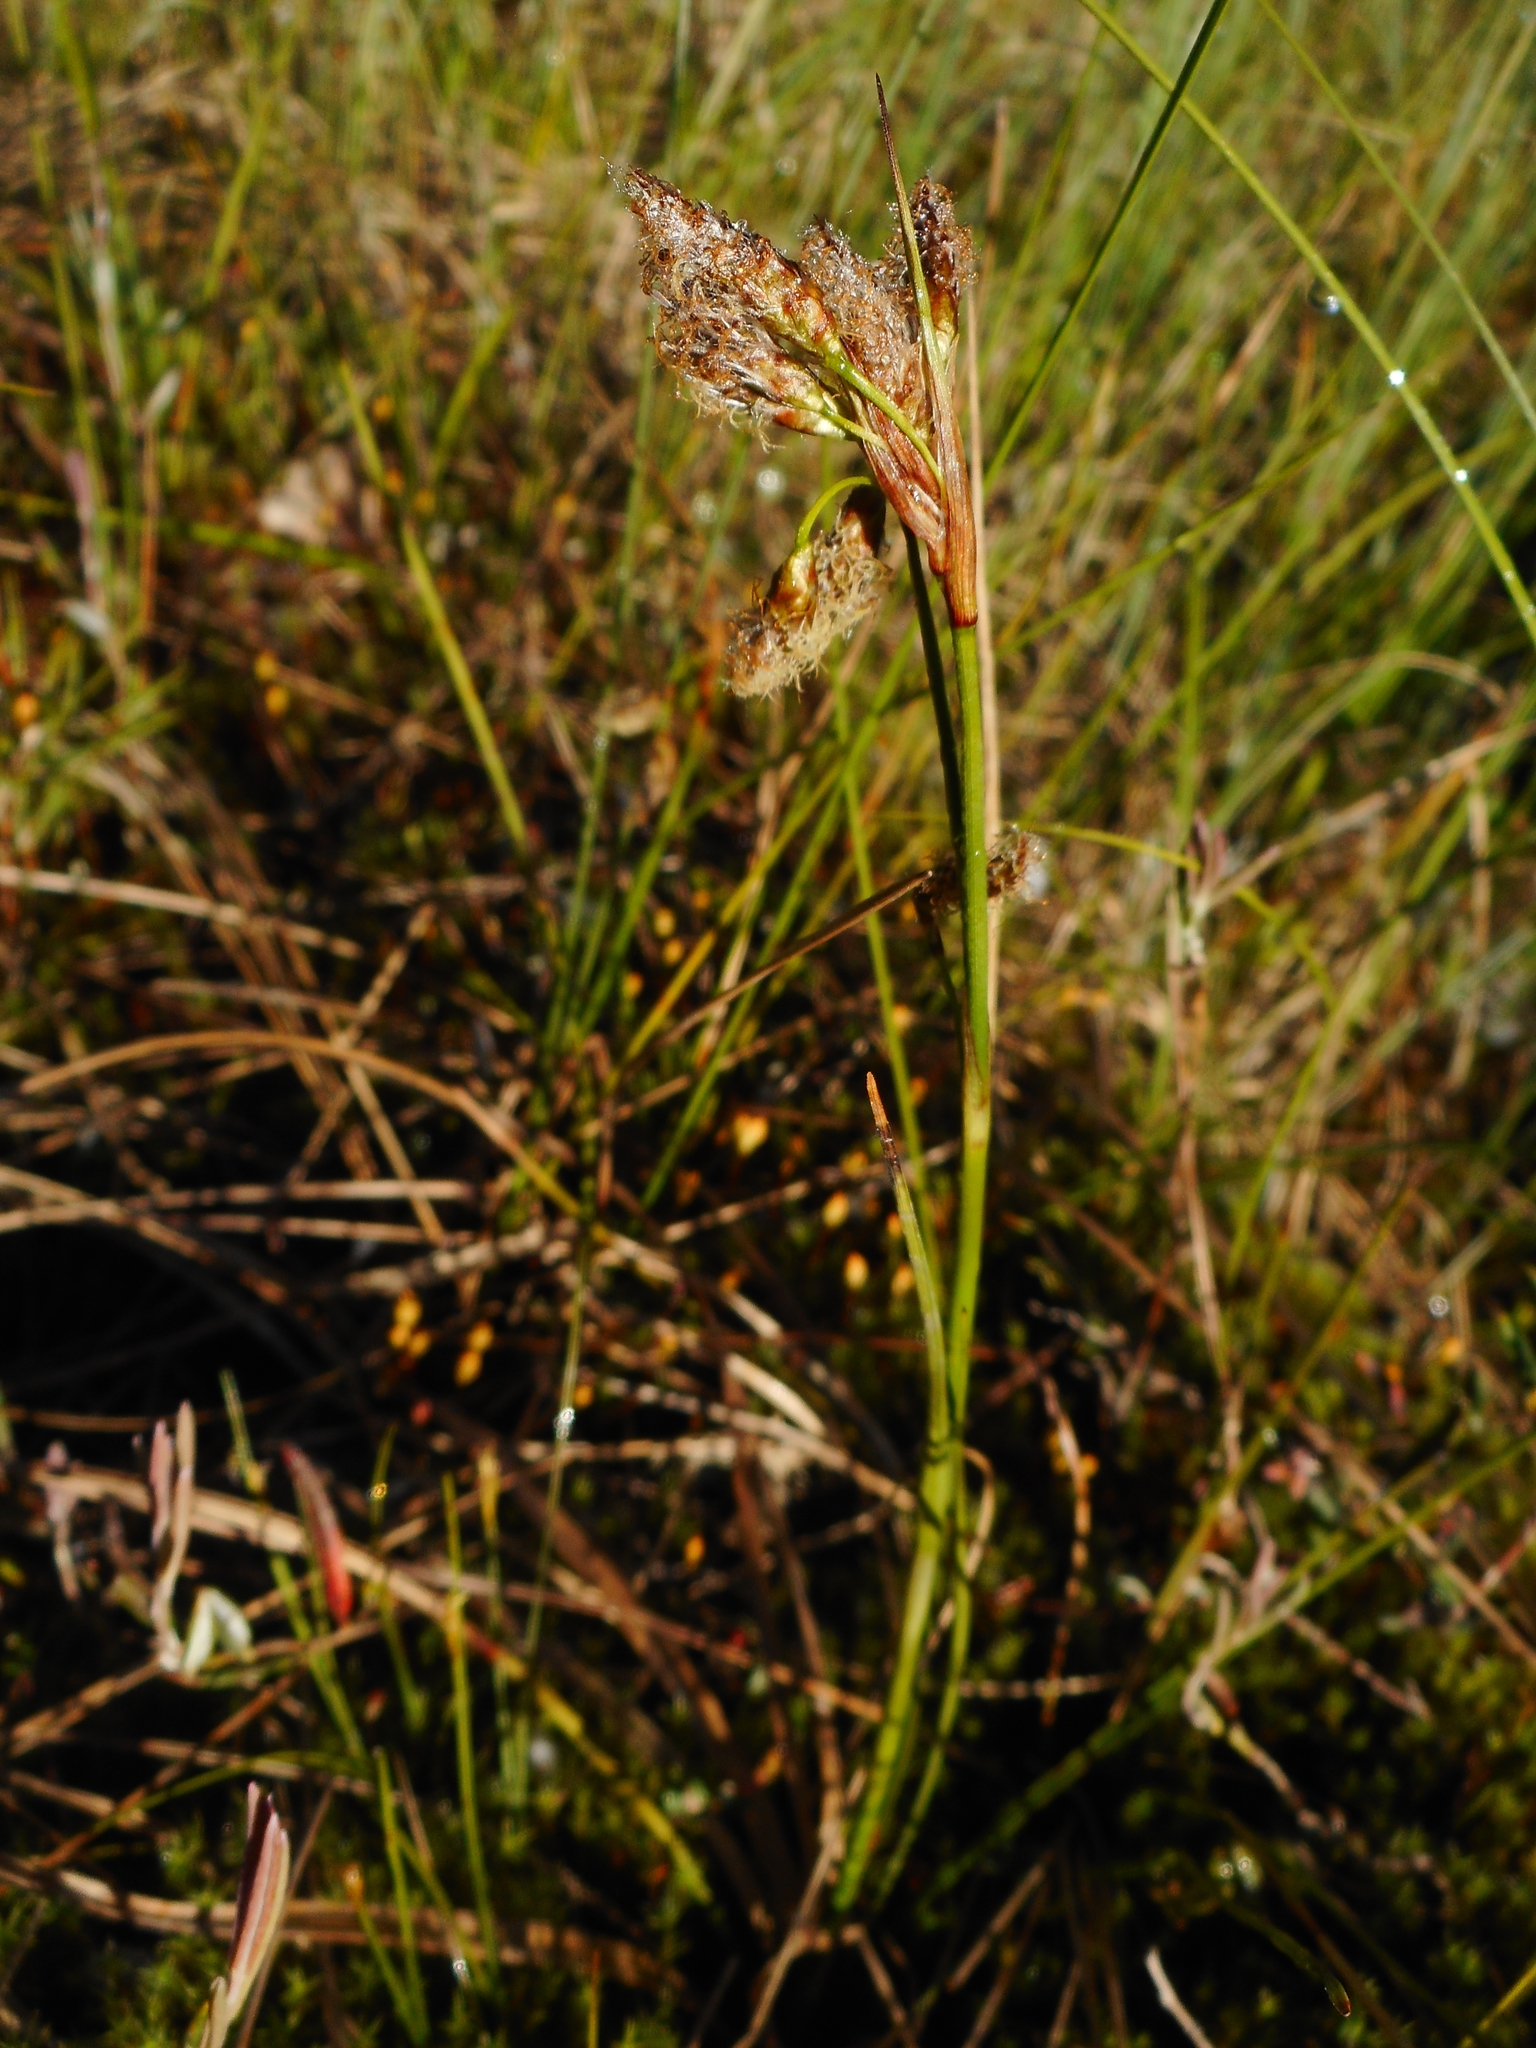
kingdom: Plantae
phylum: Tracheophyta
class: Liliopsida
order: Poales
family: Cyperaceae
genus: Eriophorum
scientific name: Eriophorum angustifolium
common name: Common cottongrass
